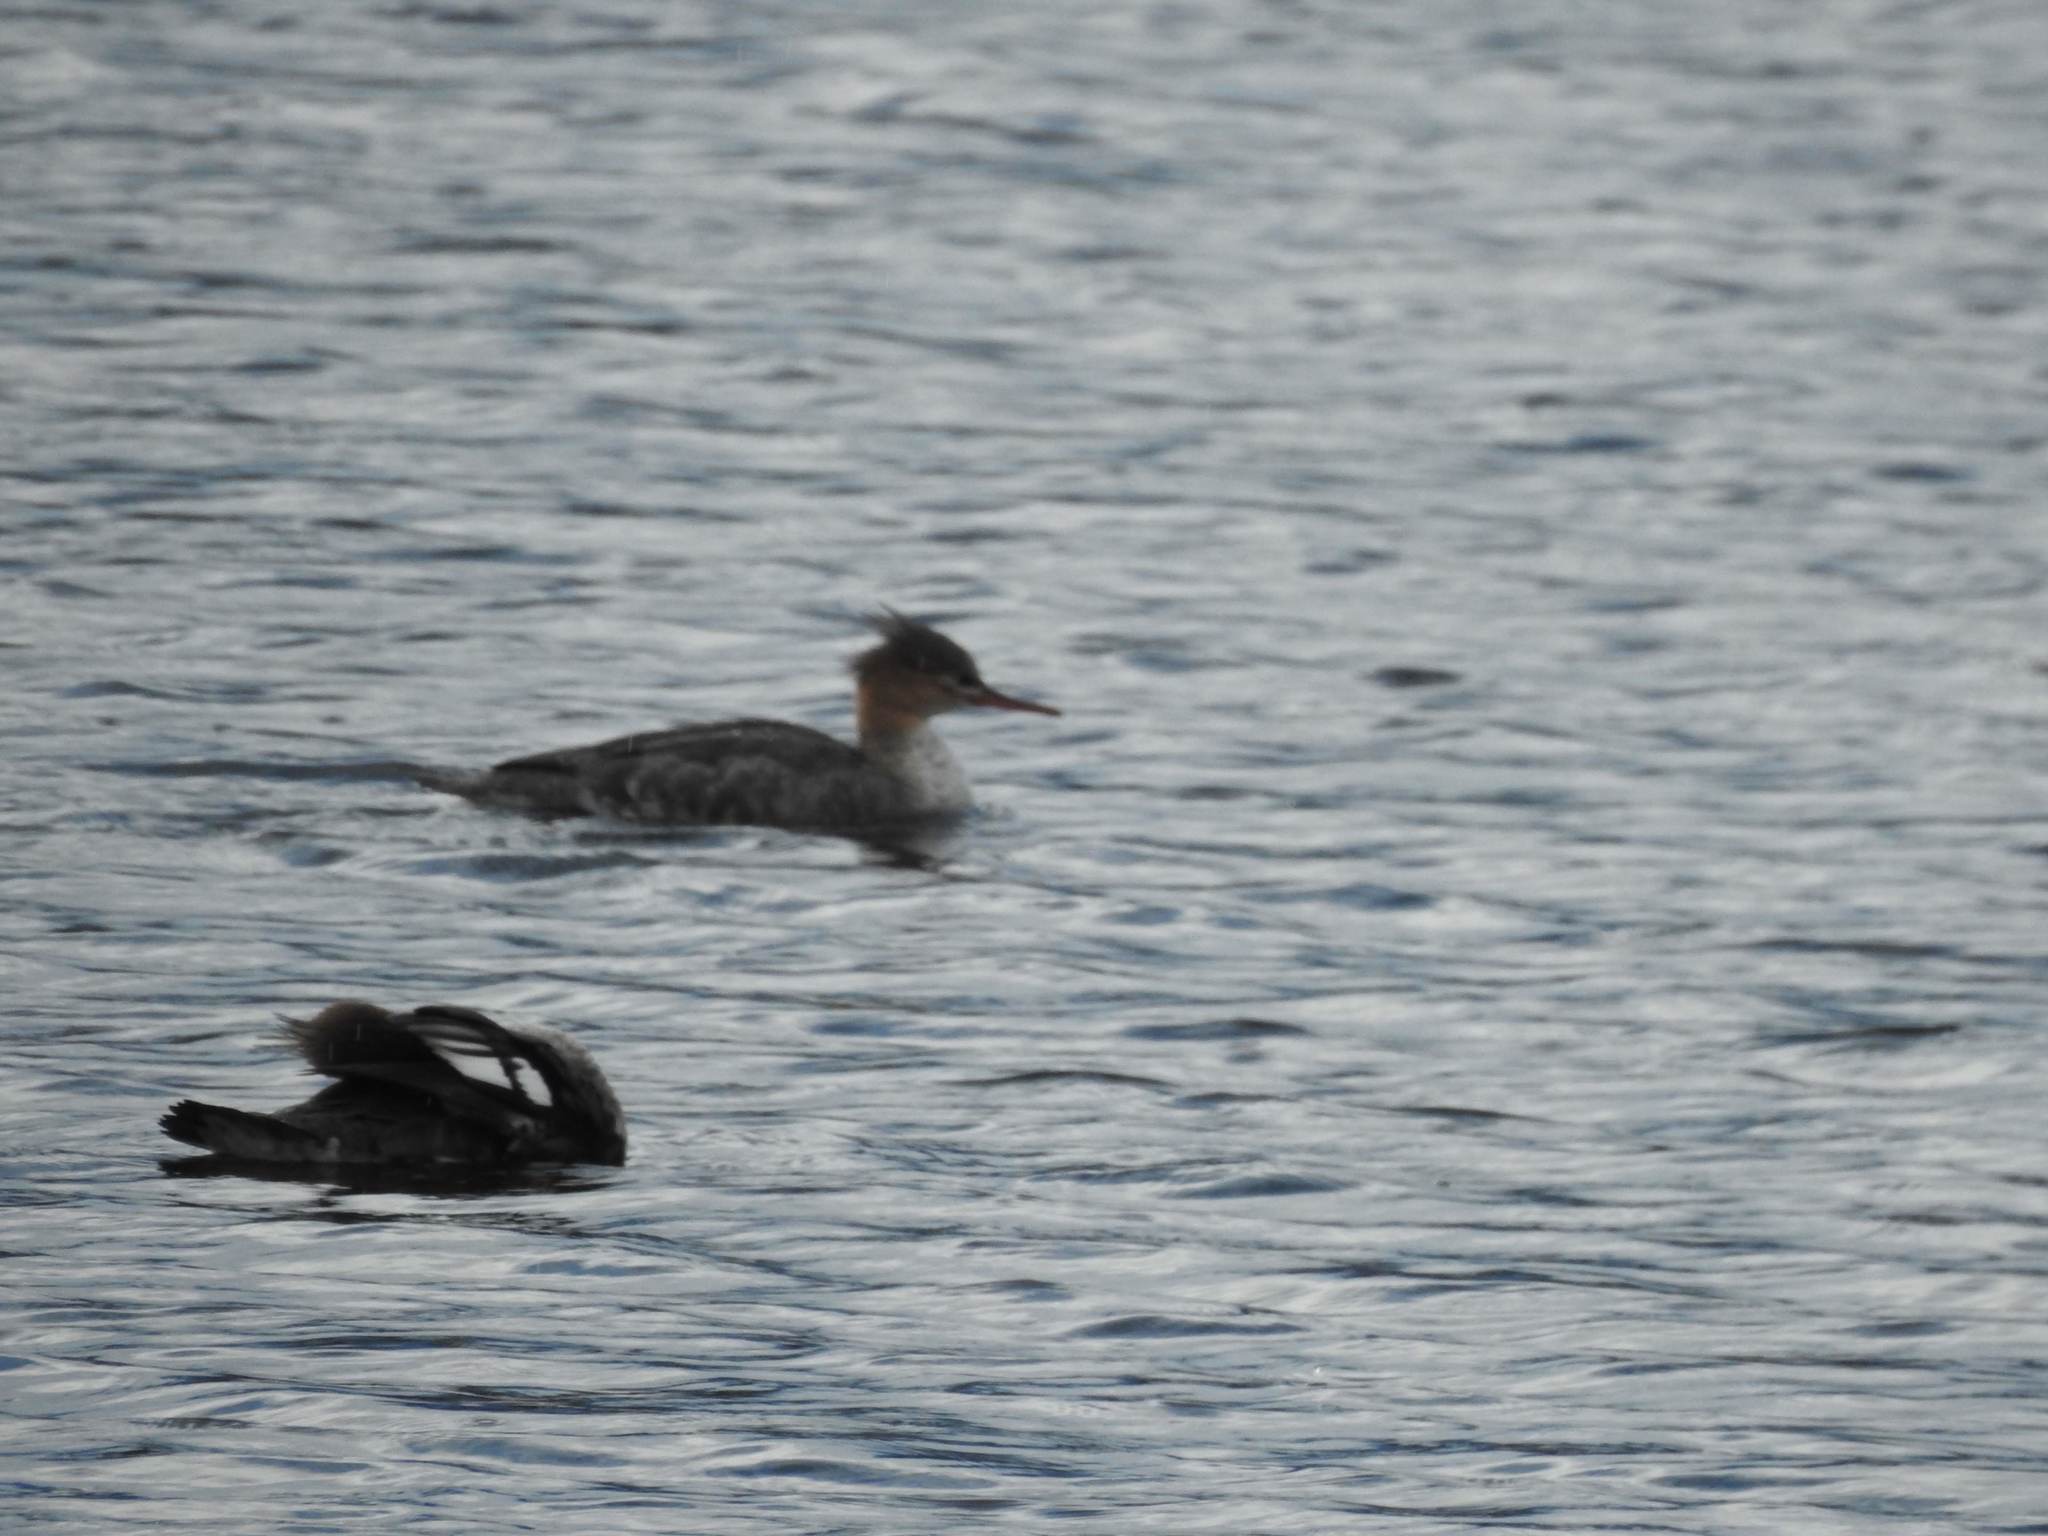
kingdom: Animalia
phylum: Chordata
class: Aves
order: Anseriformes
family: Anatidae
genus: Mergus
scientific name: Mergus serrator
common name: Red-breasted merganser
